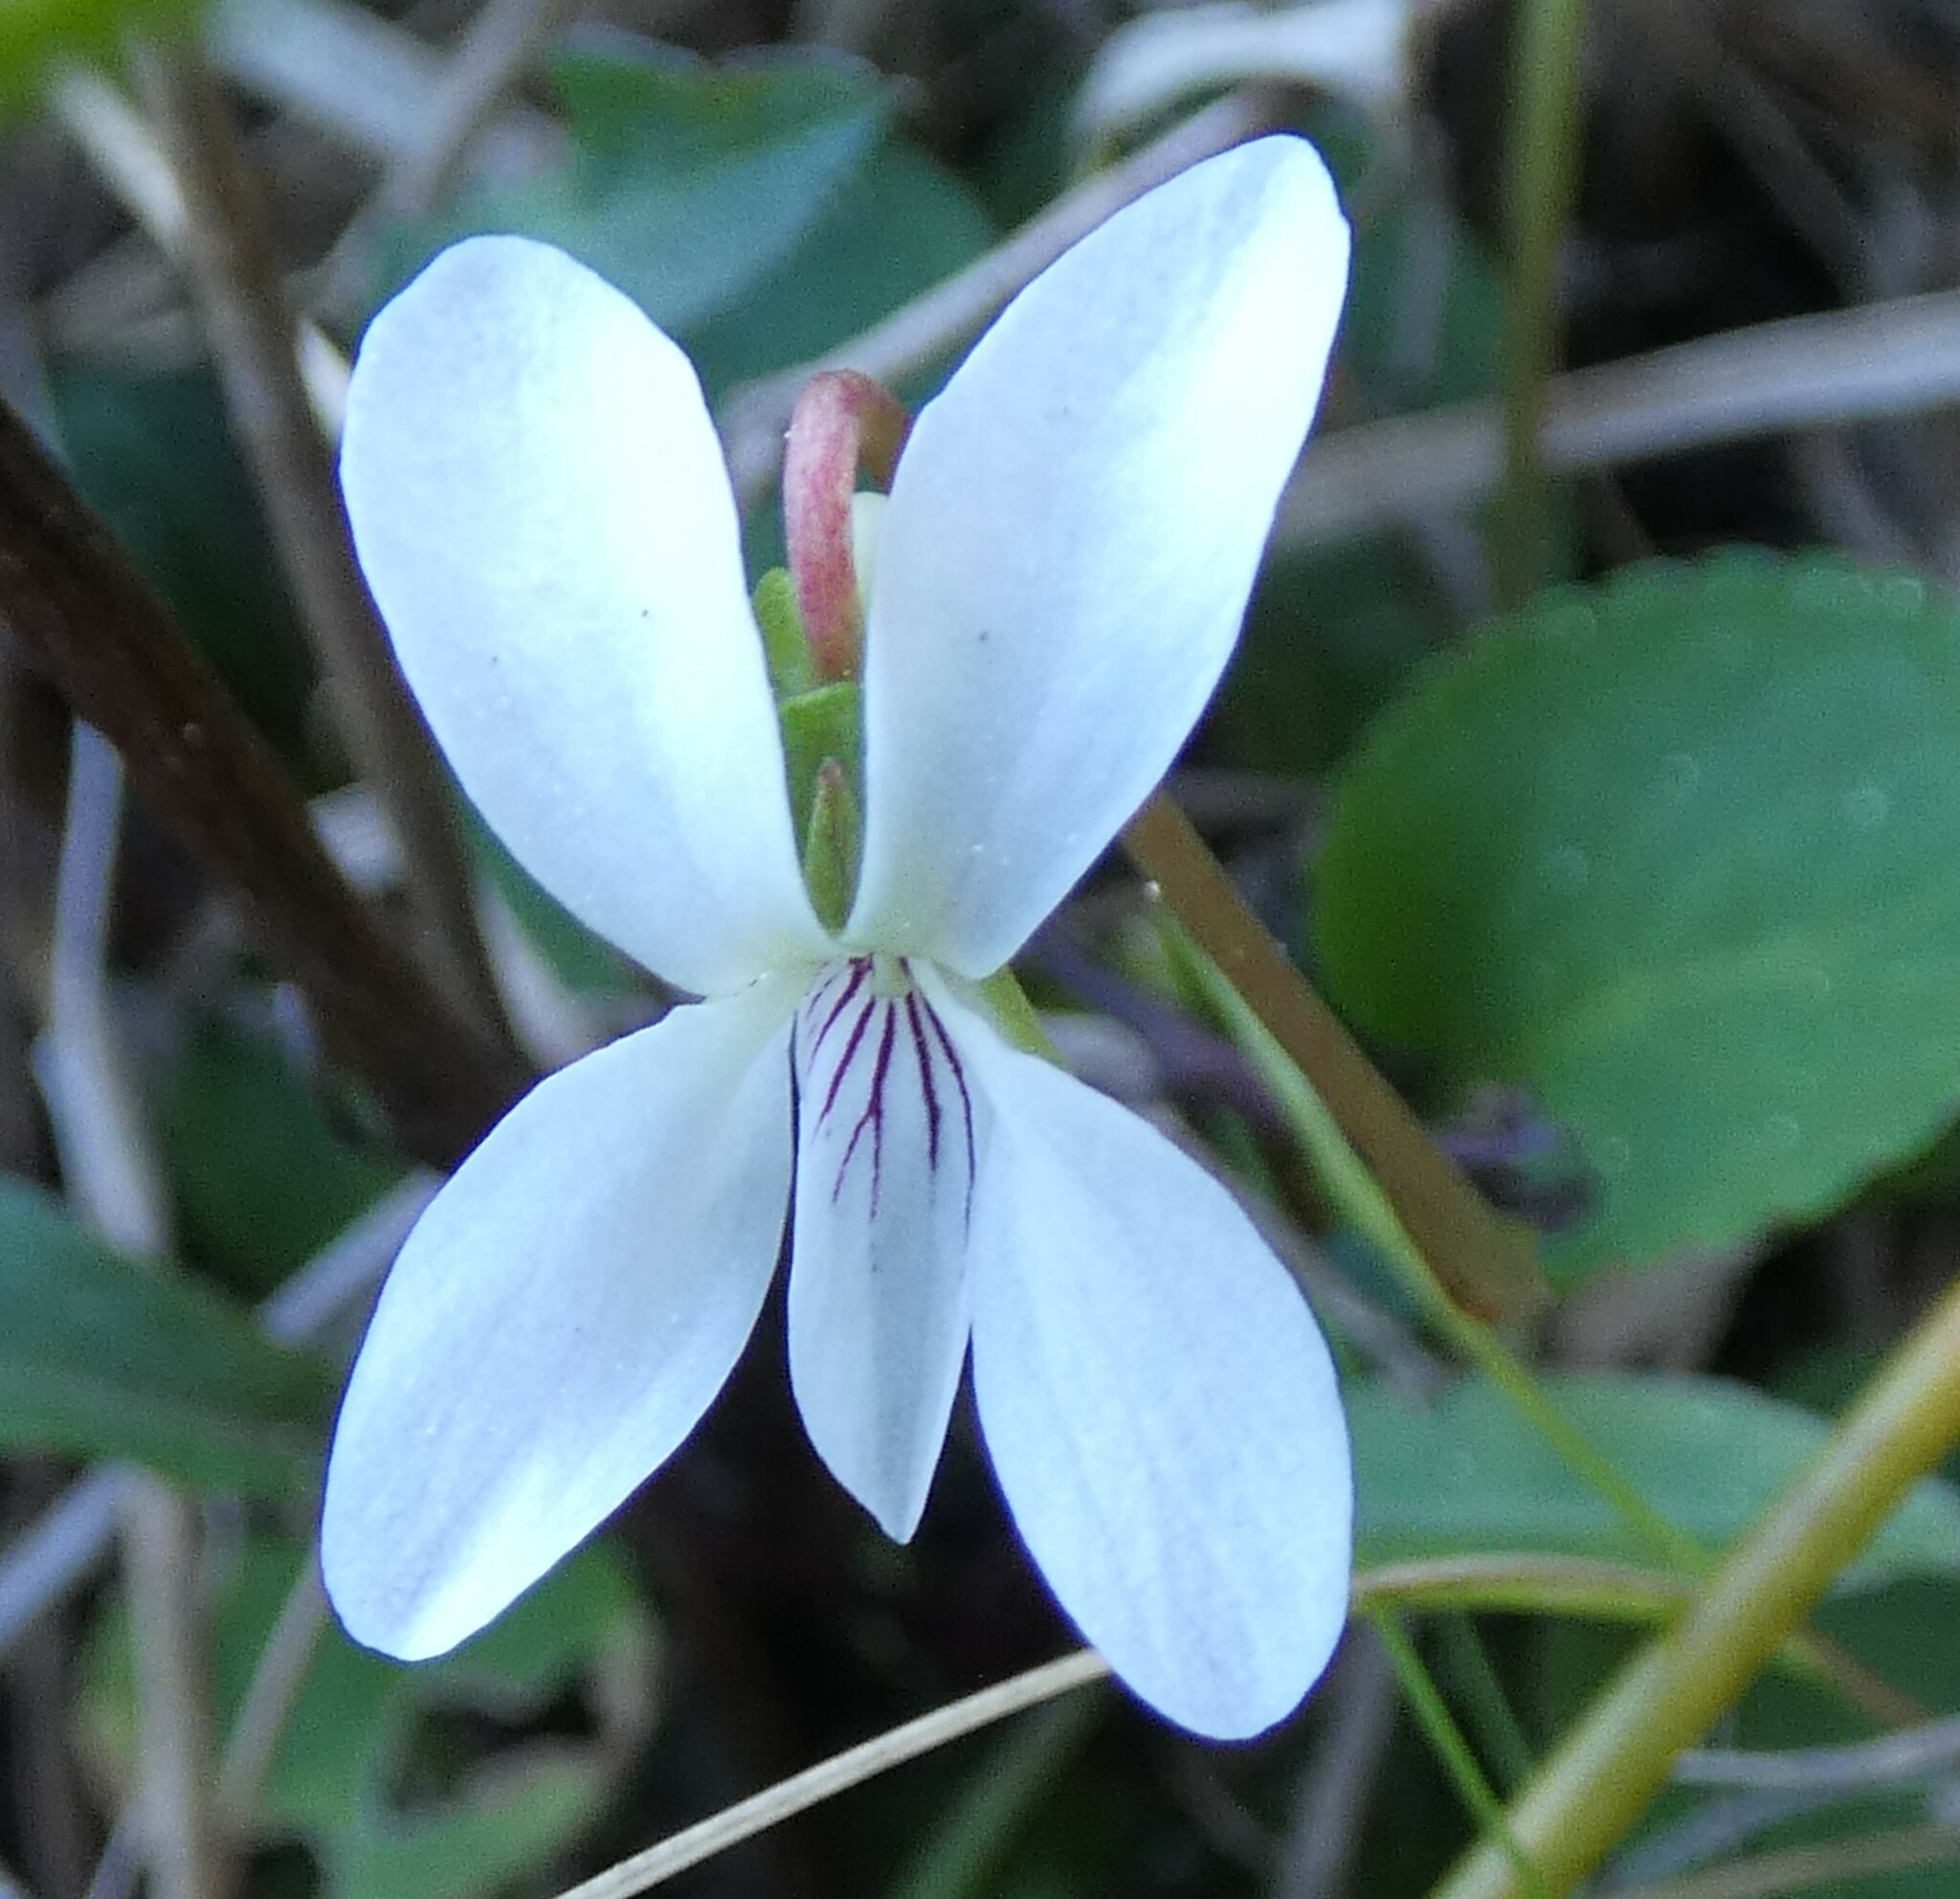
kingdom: Plantae
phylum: Tracheophyta
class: Magnoliopsida
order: Malpighiales
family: Violaceae
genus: Viola
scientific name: Viola vittata
